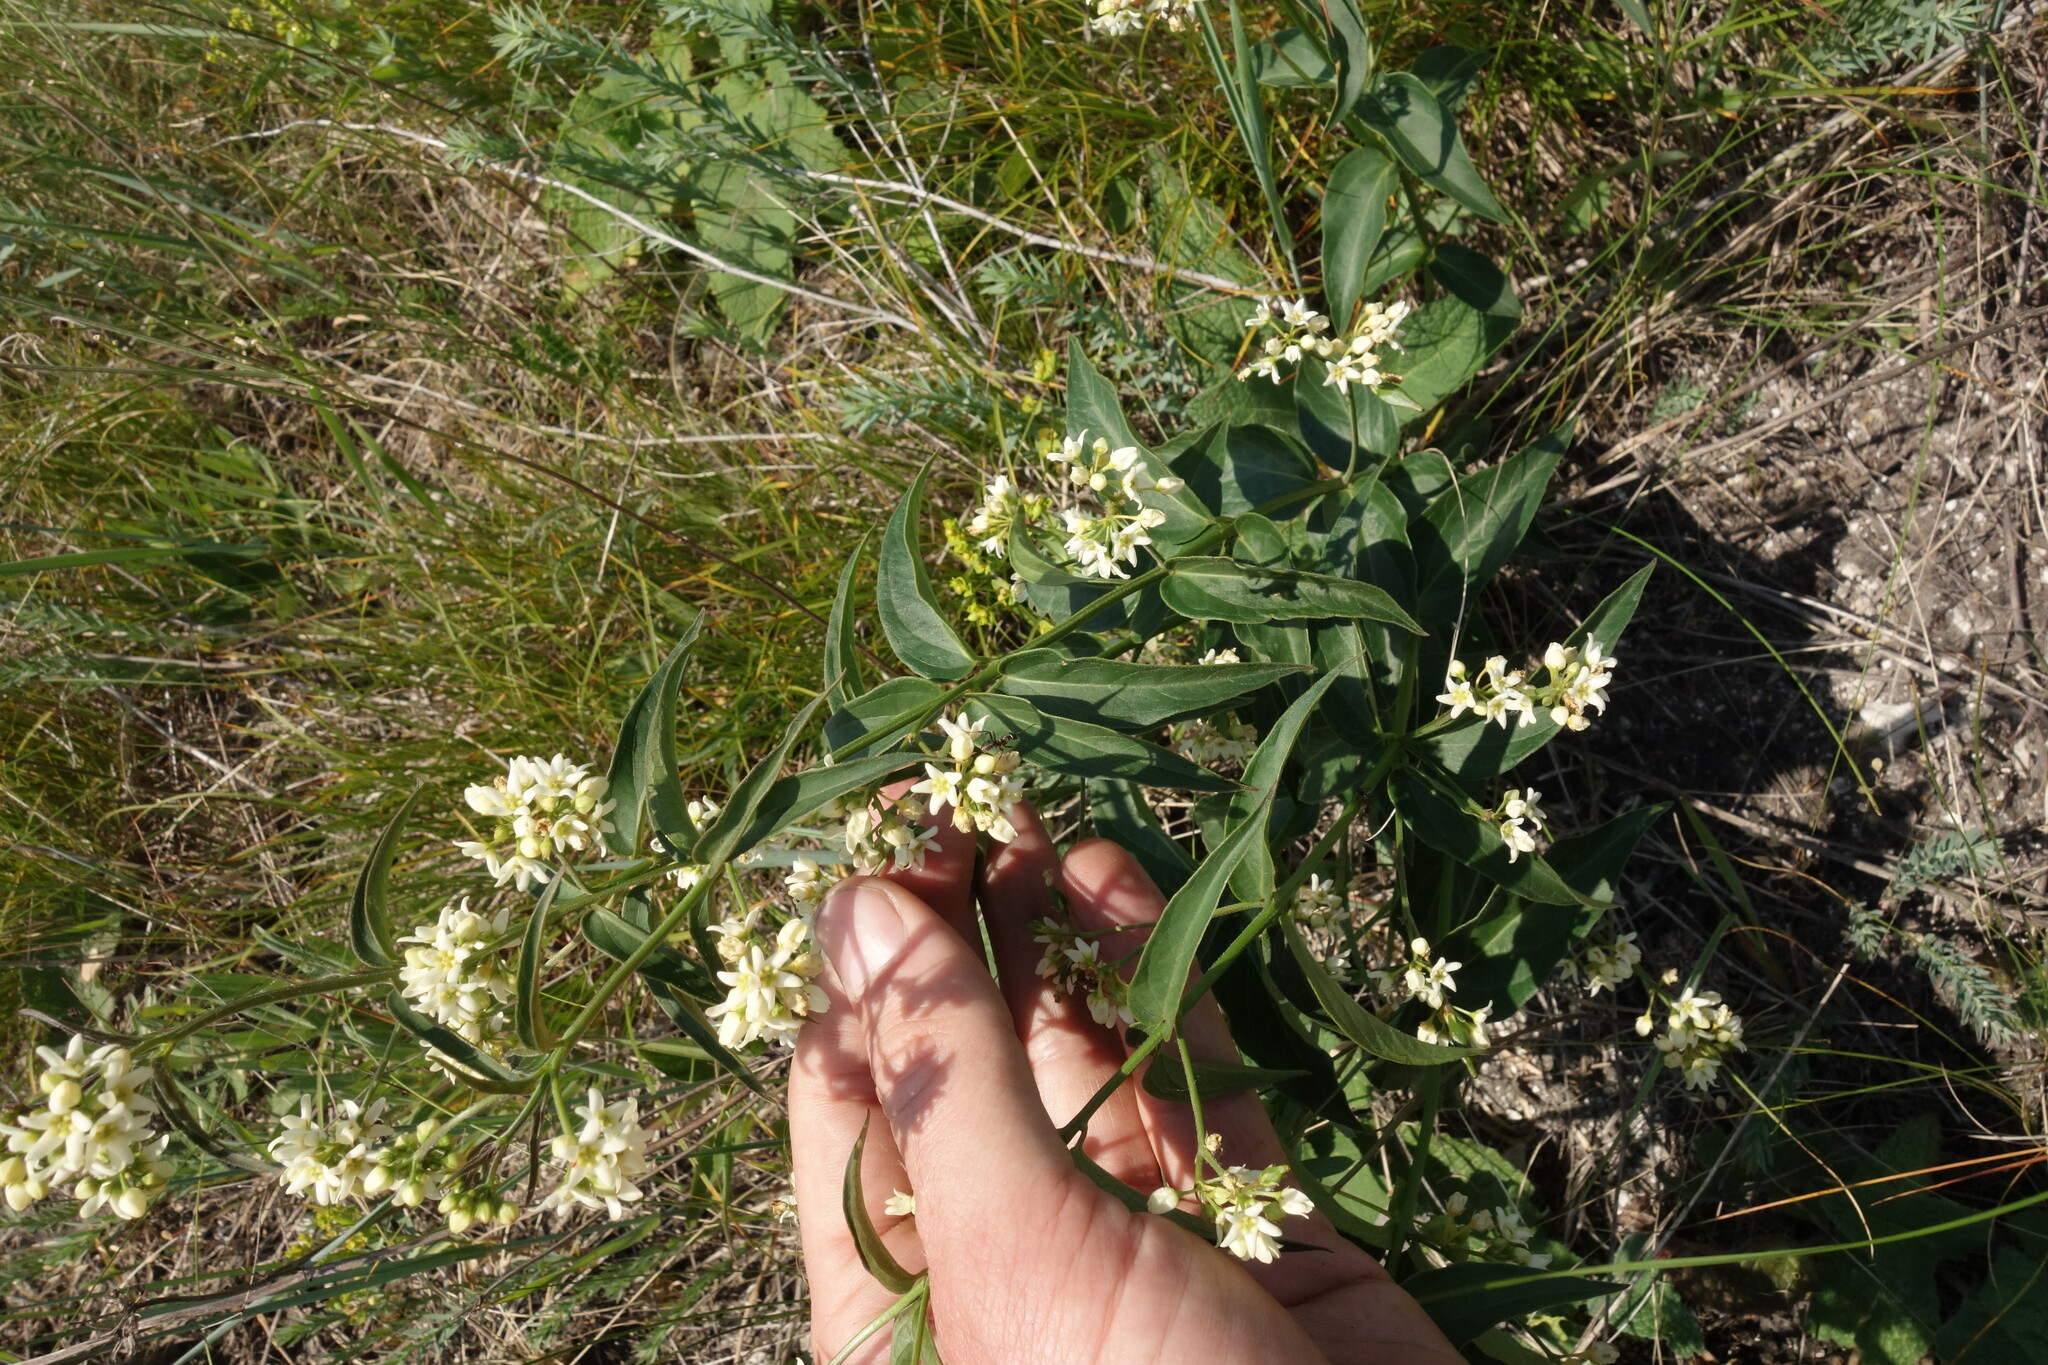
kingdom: Plantae
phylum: Tracheophyta
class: Magnoliopsida
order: Gentianales
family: Apocynaceae
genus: Vincetoxicum
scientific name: Vincetoxicum hirundinaria
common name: White swallowwort
